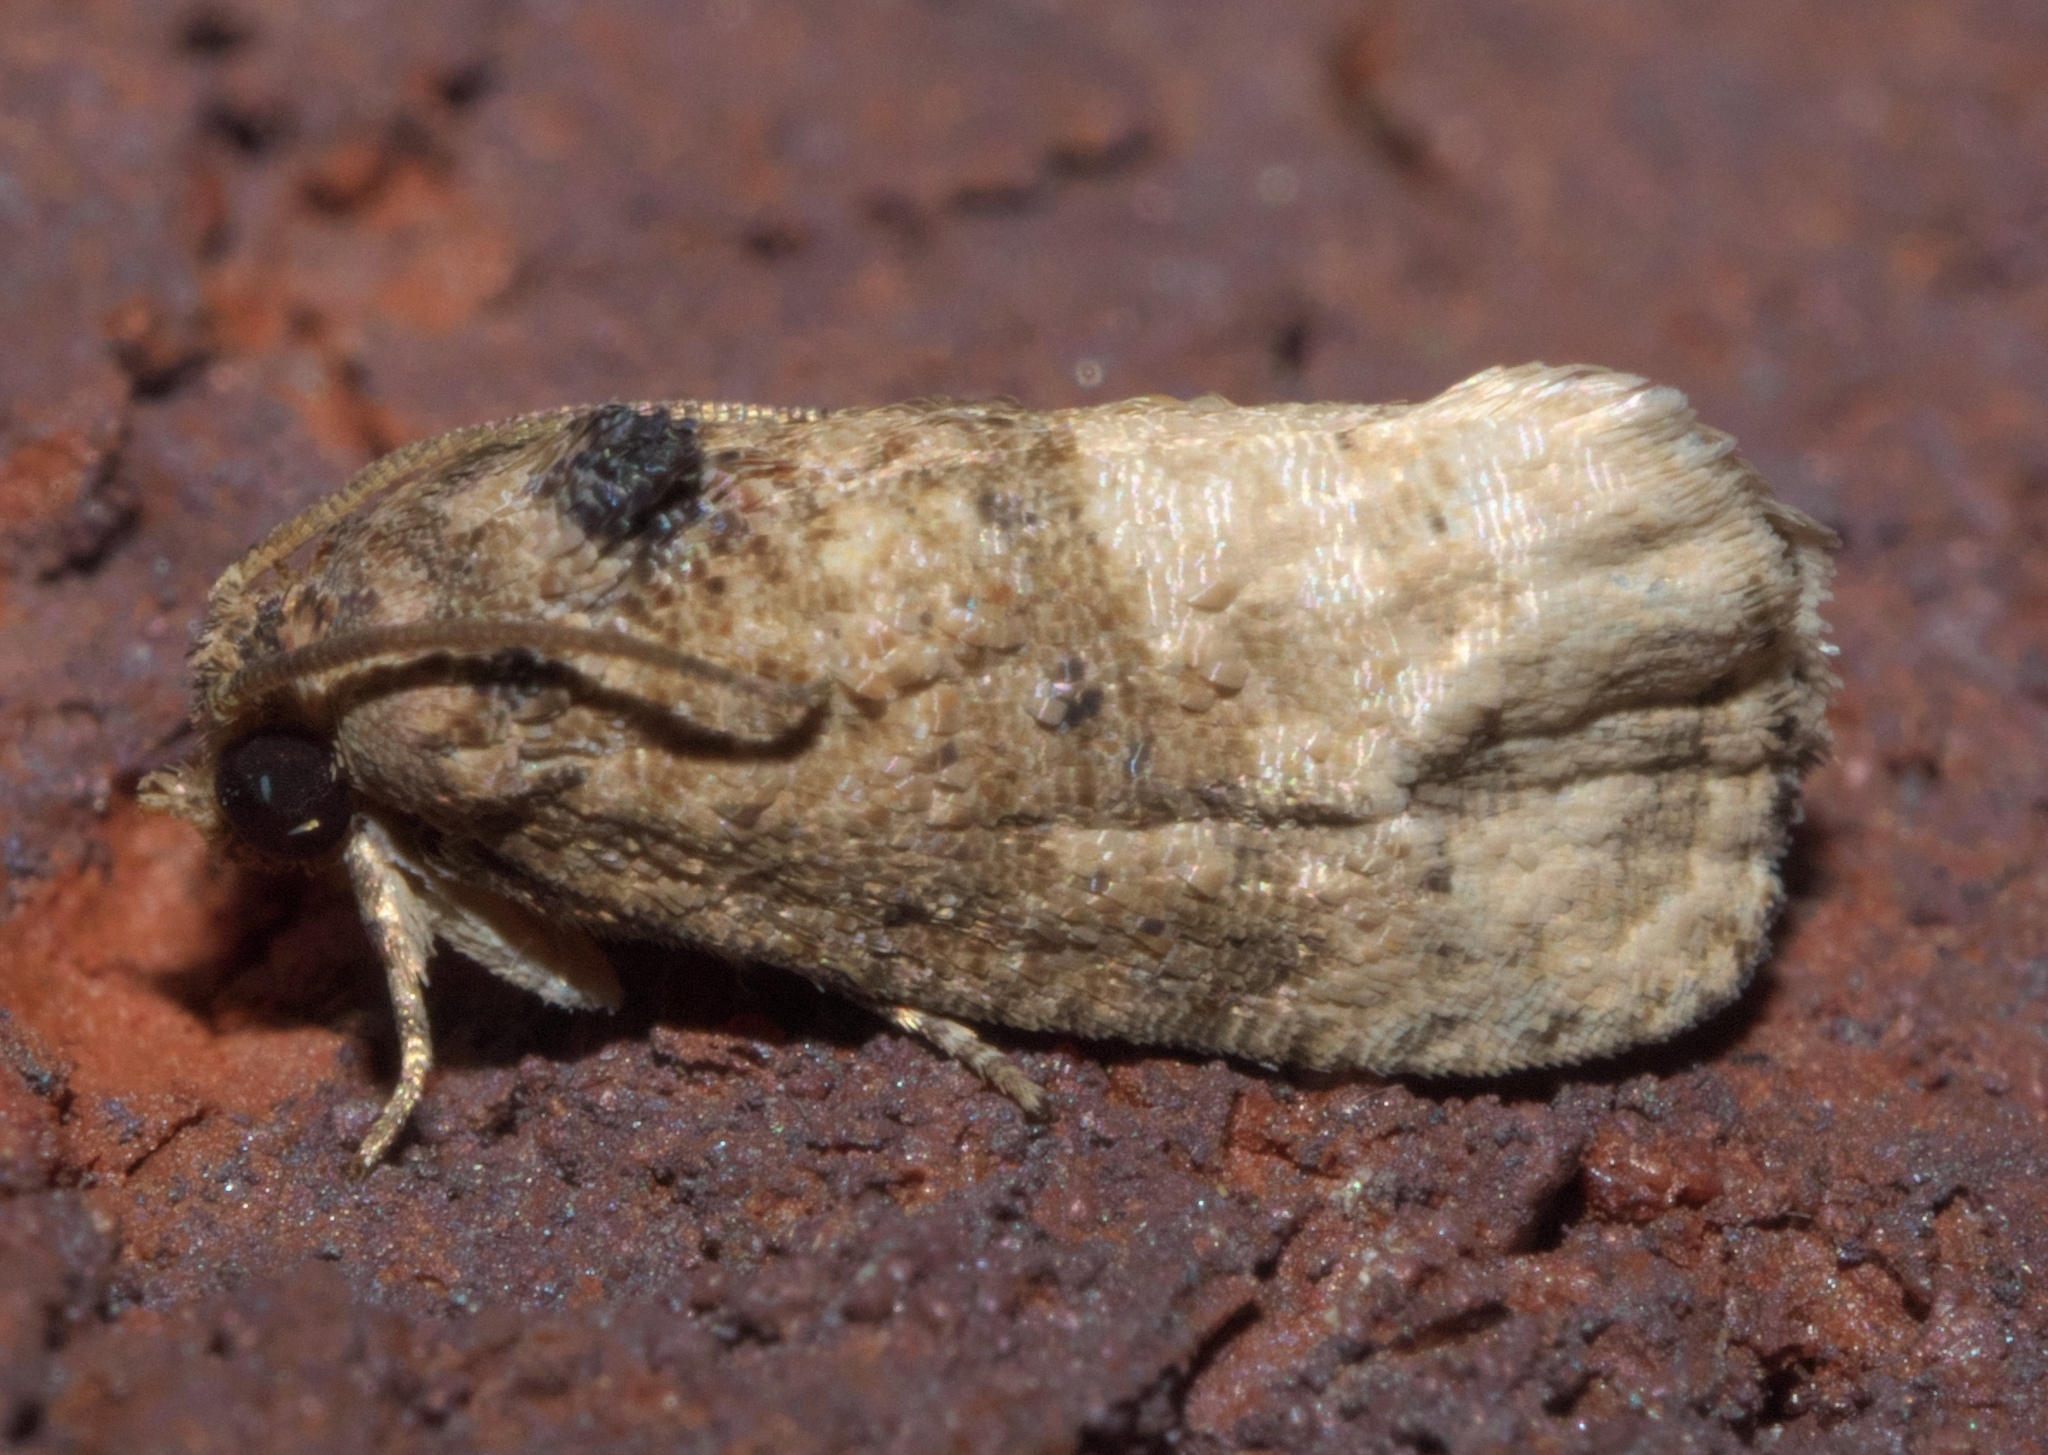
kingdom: Animalia
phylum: Arthropoda
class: Insecta
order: Lepidoptera
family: Tortricidae
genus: Ecdytolopha
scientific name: Ecdytolopha mana
